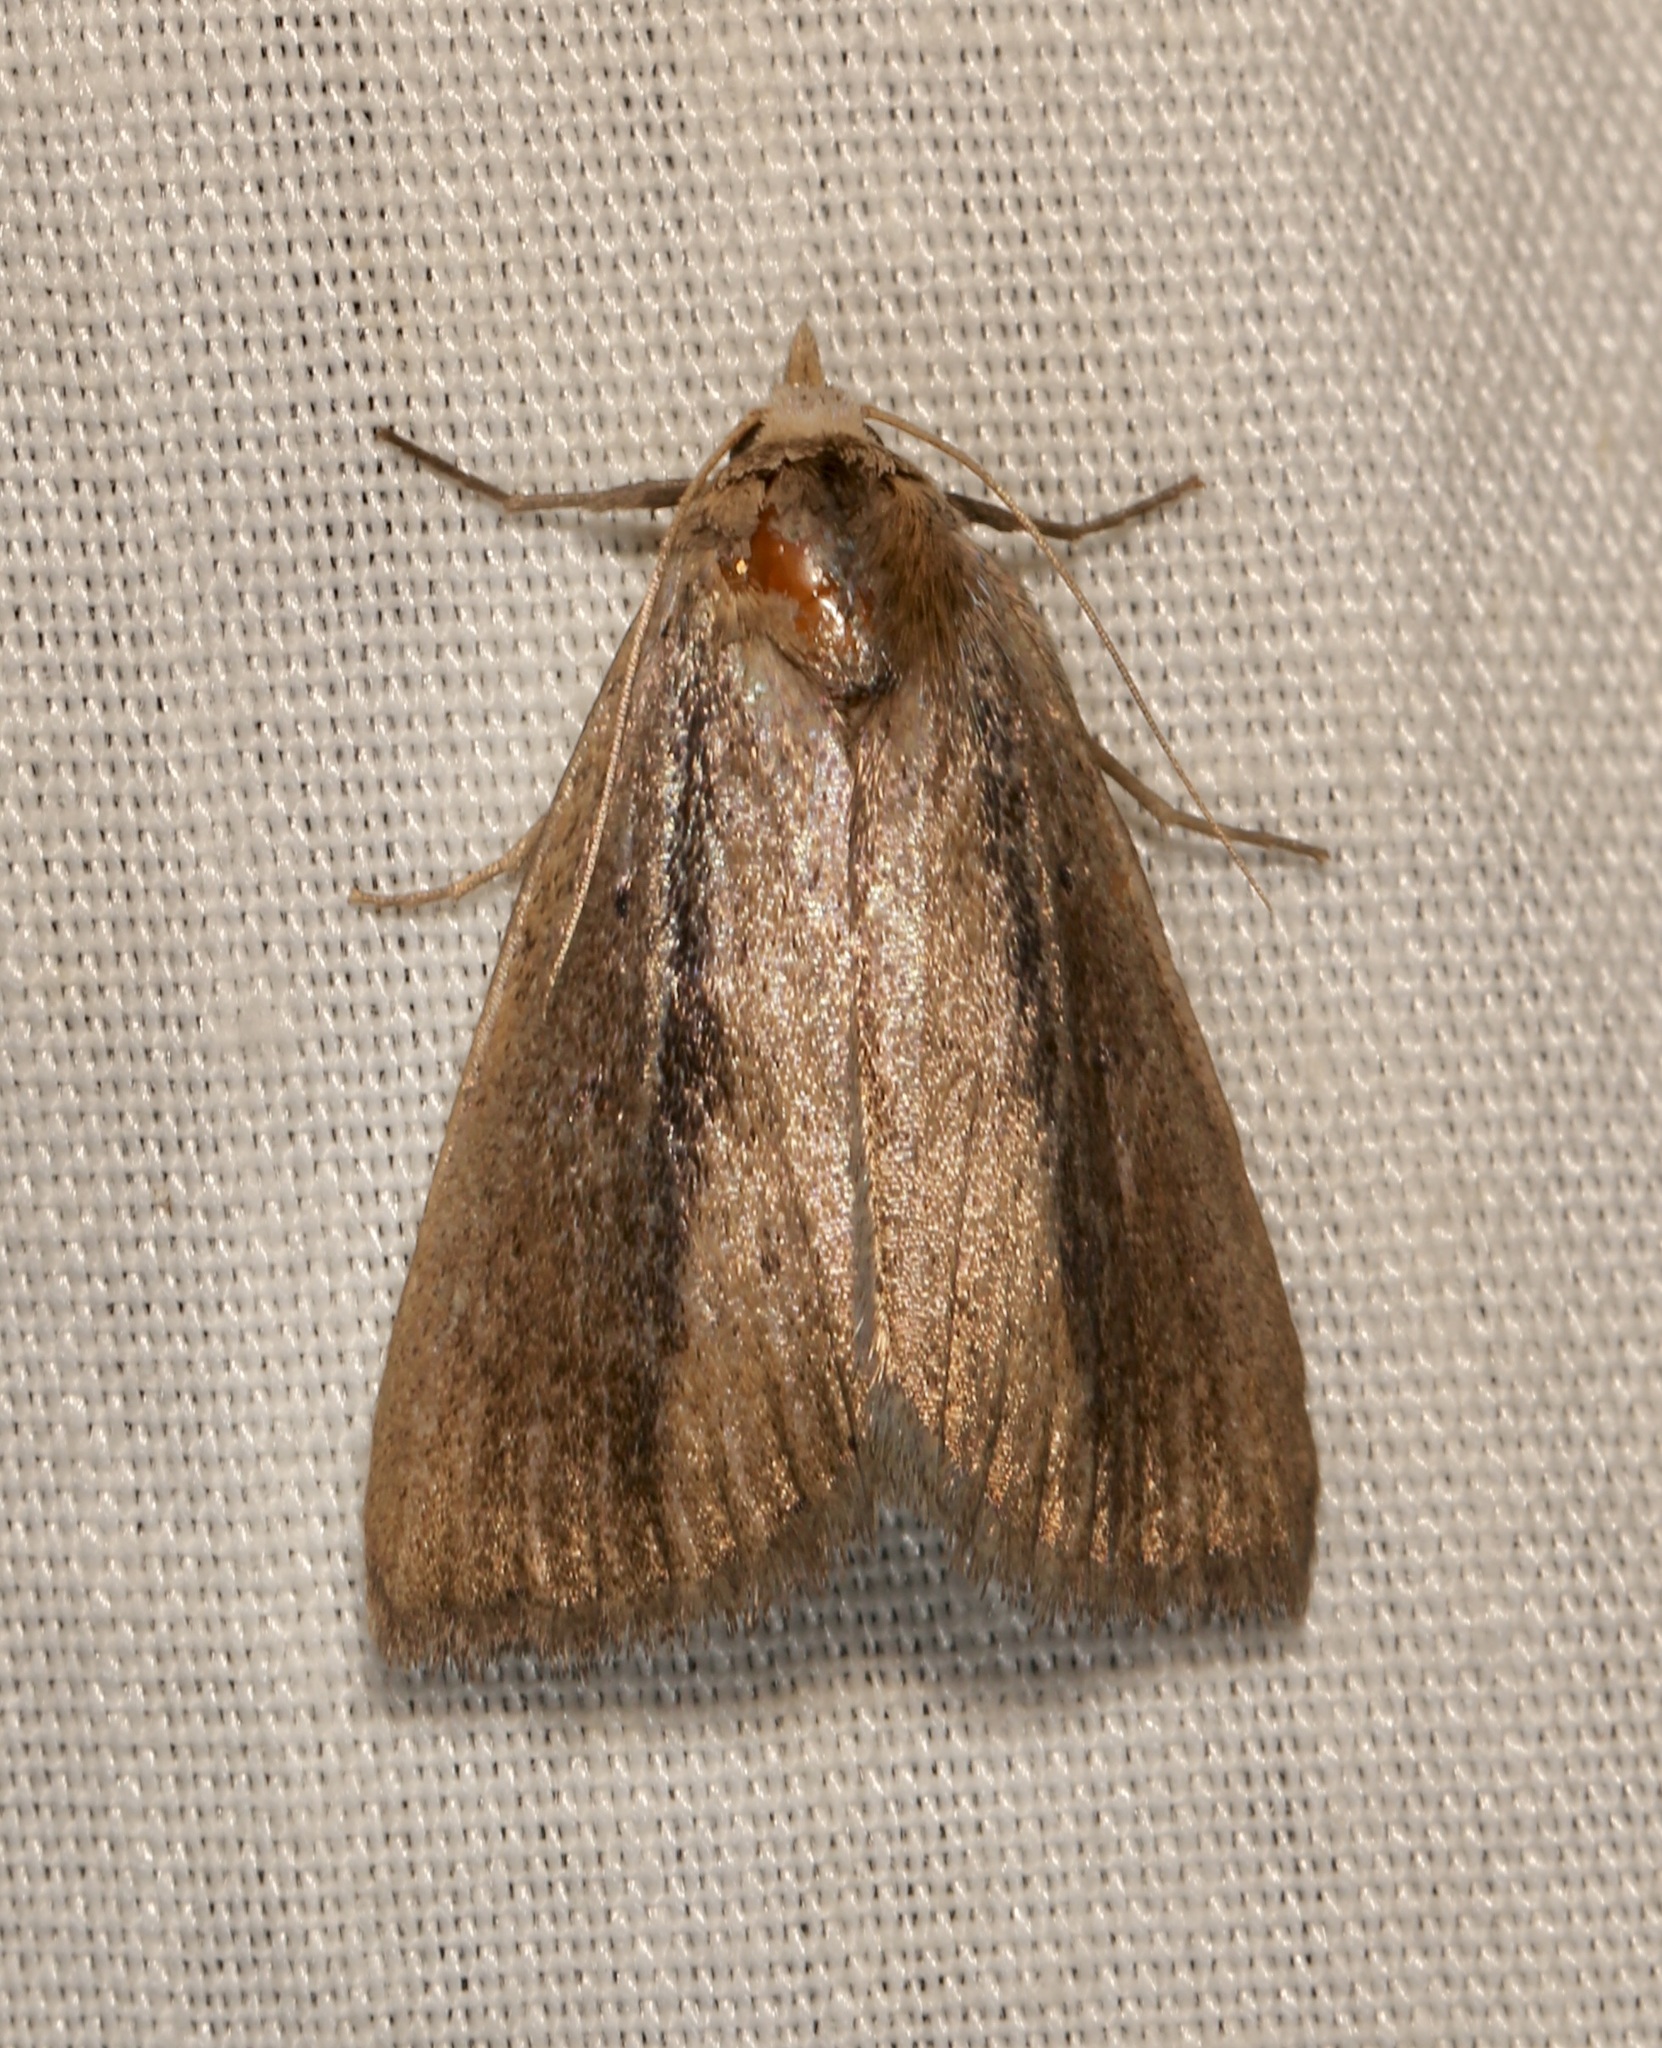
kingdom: Animalia
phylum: Arthropoda
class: Insecta
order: Lepidoptera
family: Erebidae
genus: Gabara
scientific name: Gabara stygialis
